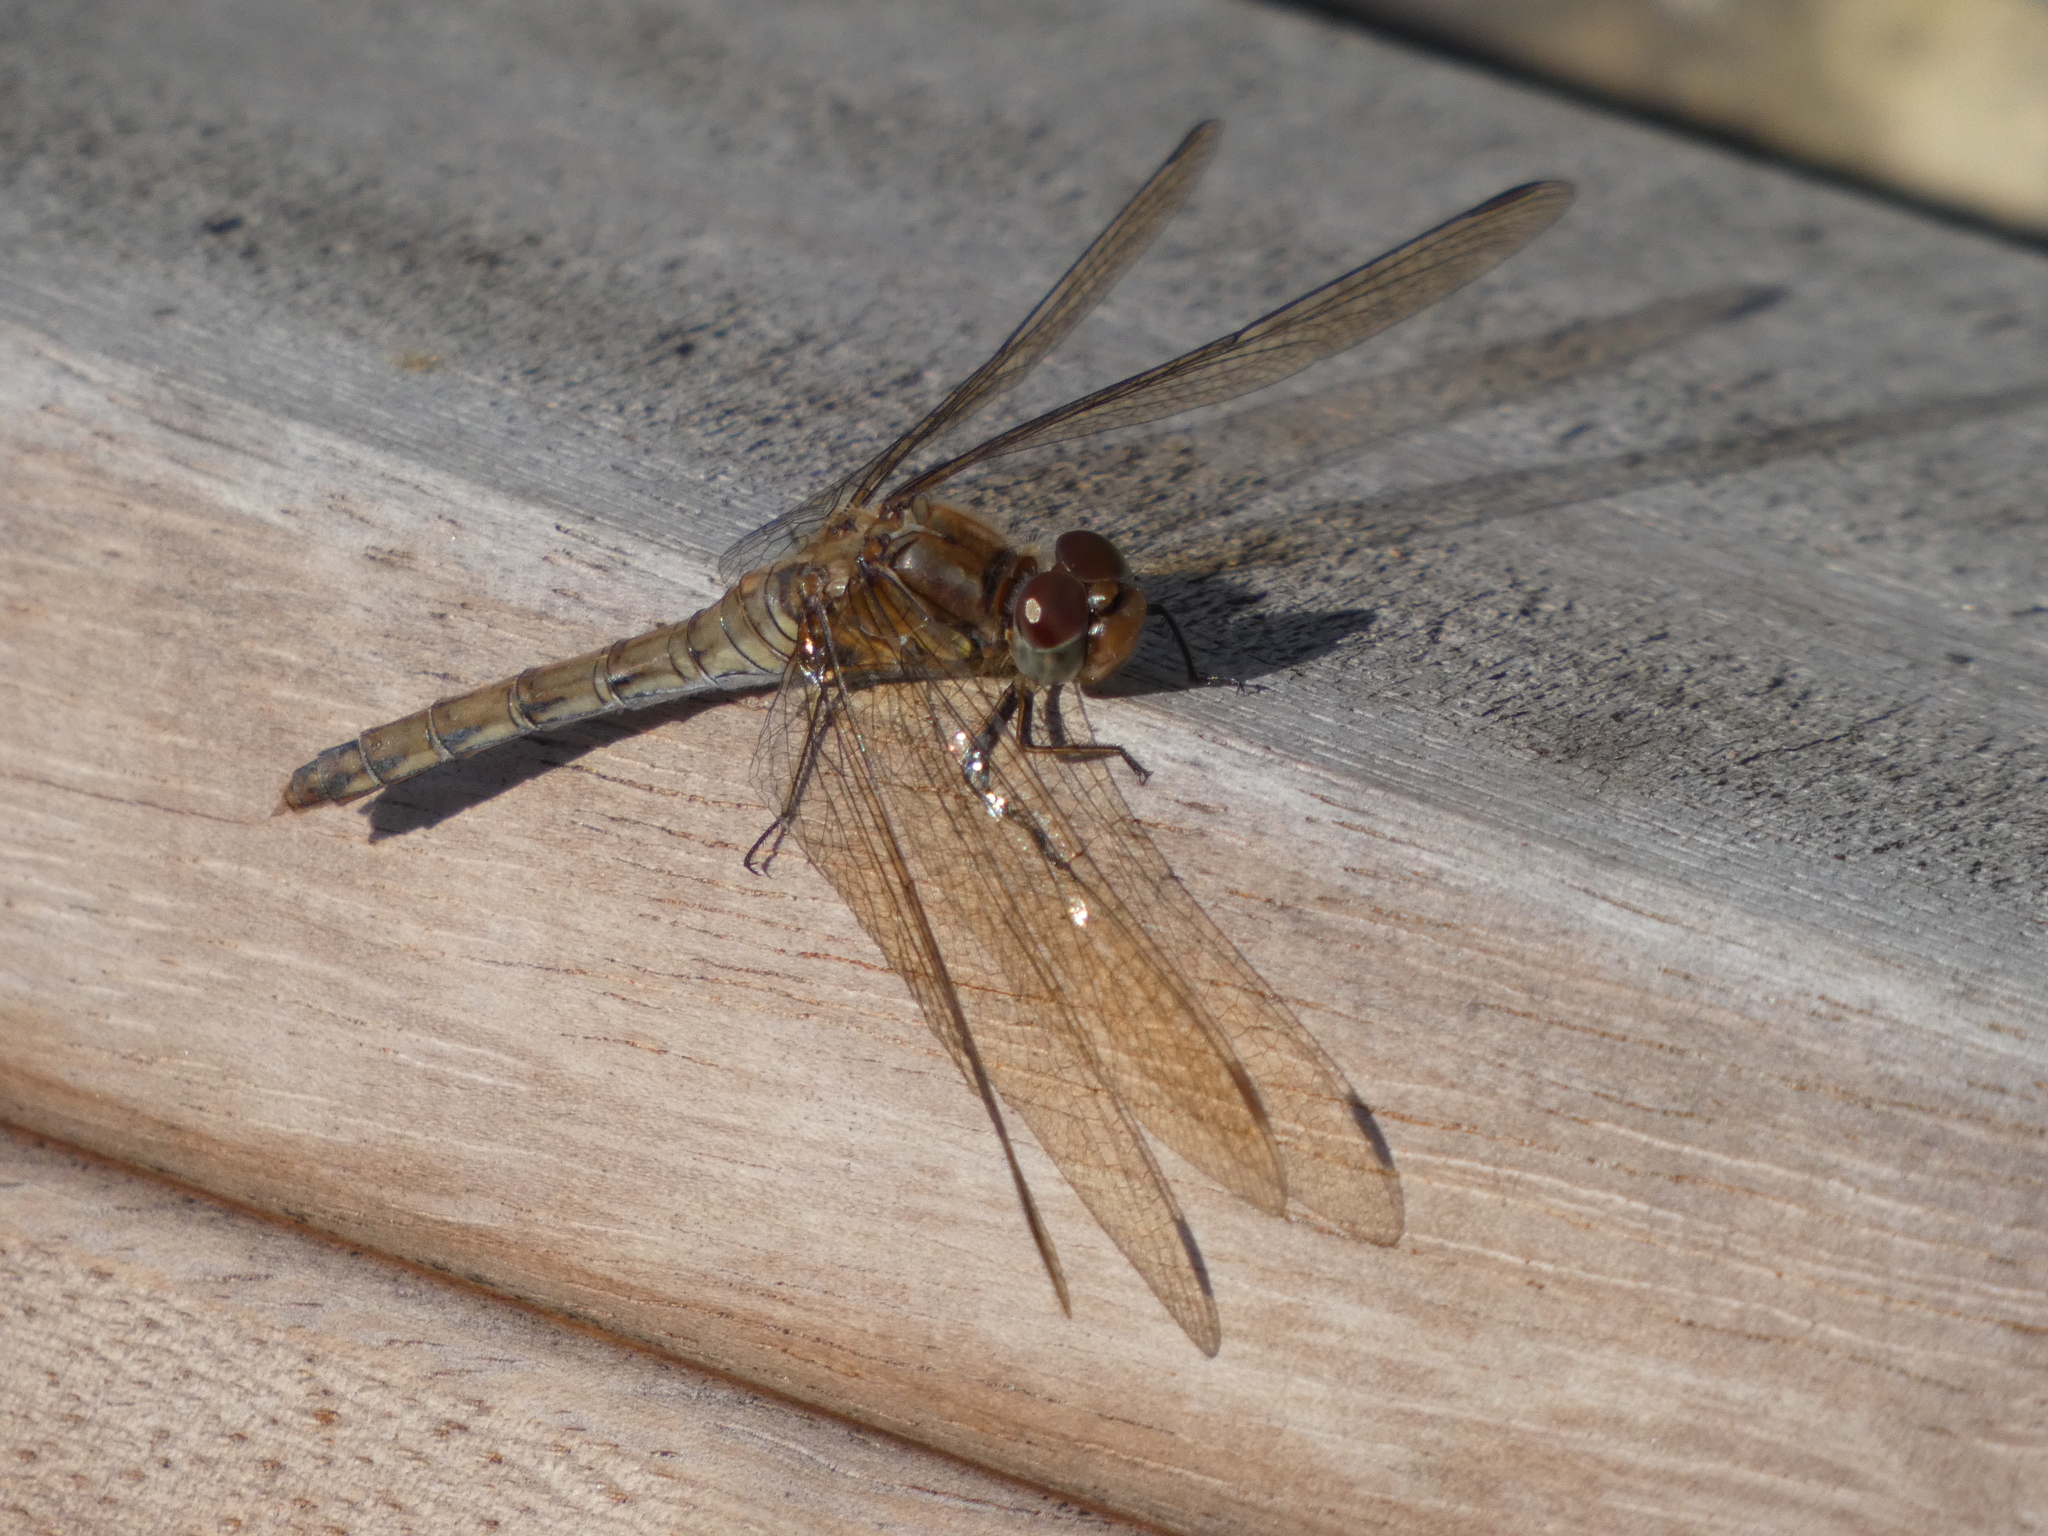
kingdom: Animalia
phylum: Arthropoda
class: Insecta
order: Odonata
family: Libellulidae
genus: Sympetrum
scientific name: Sympetrum striolatum
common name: Common darter
